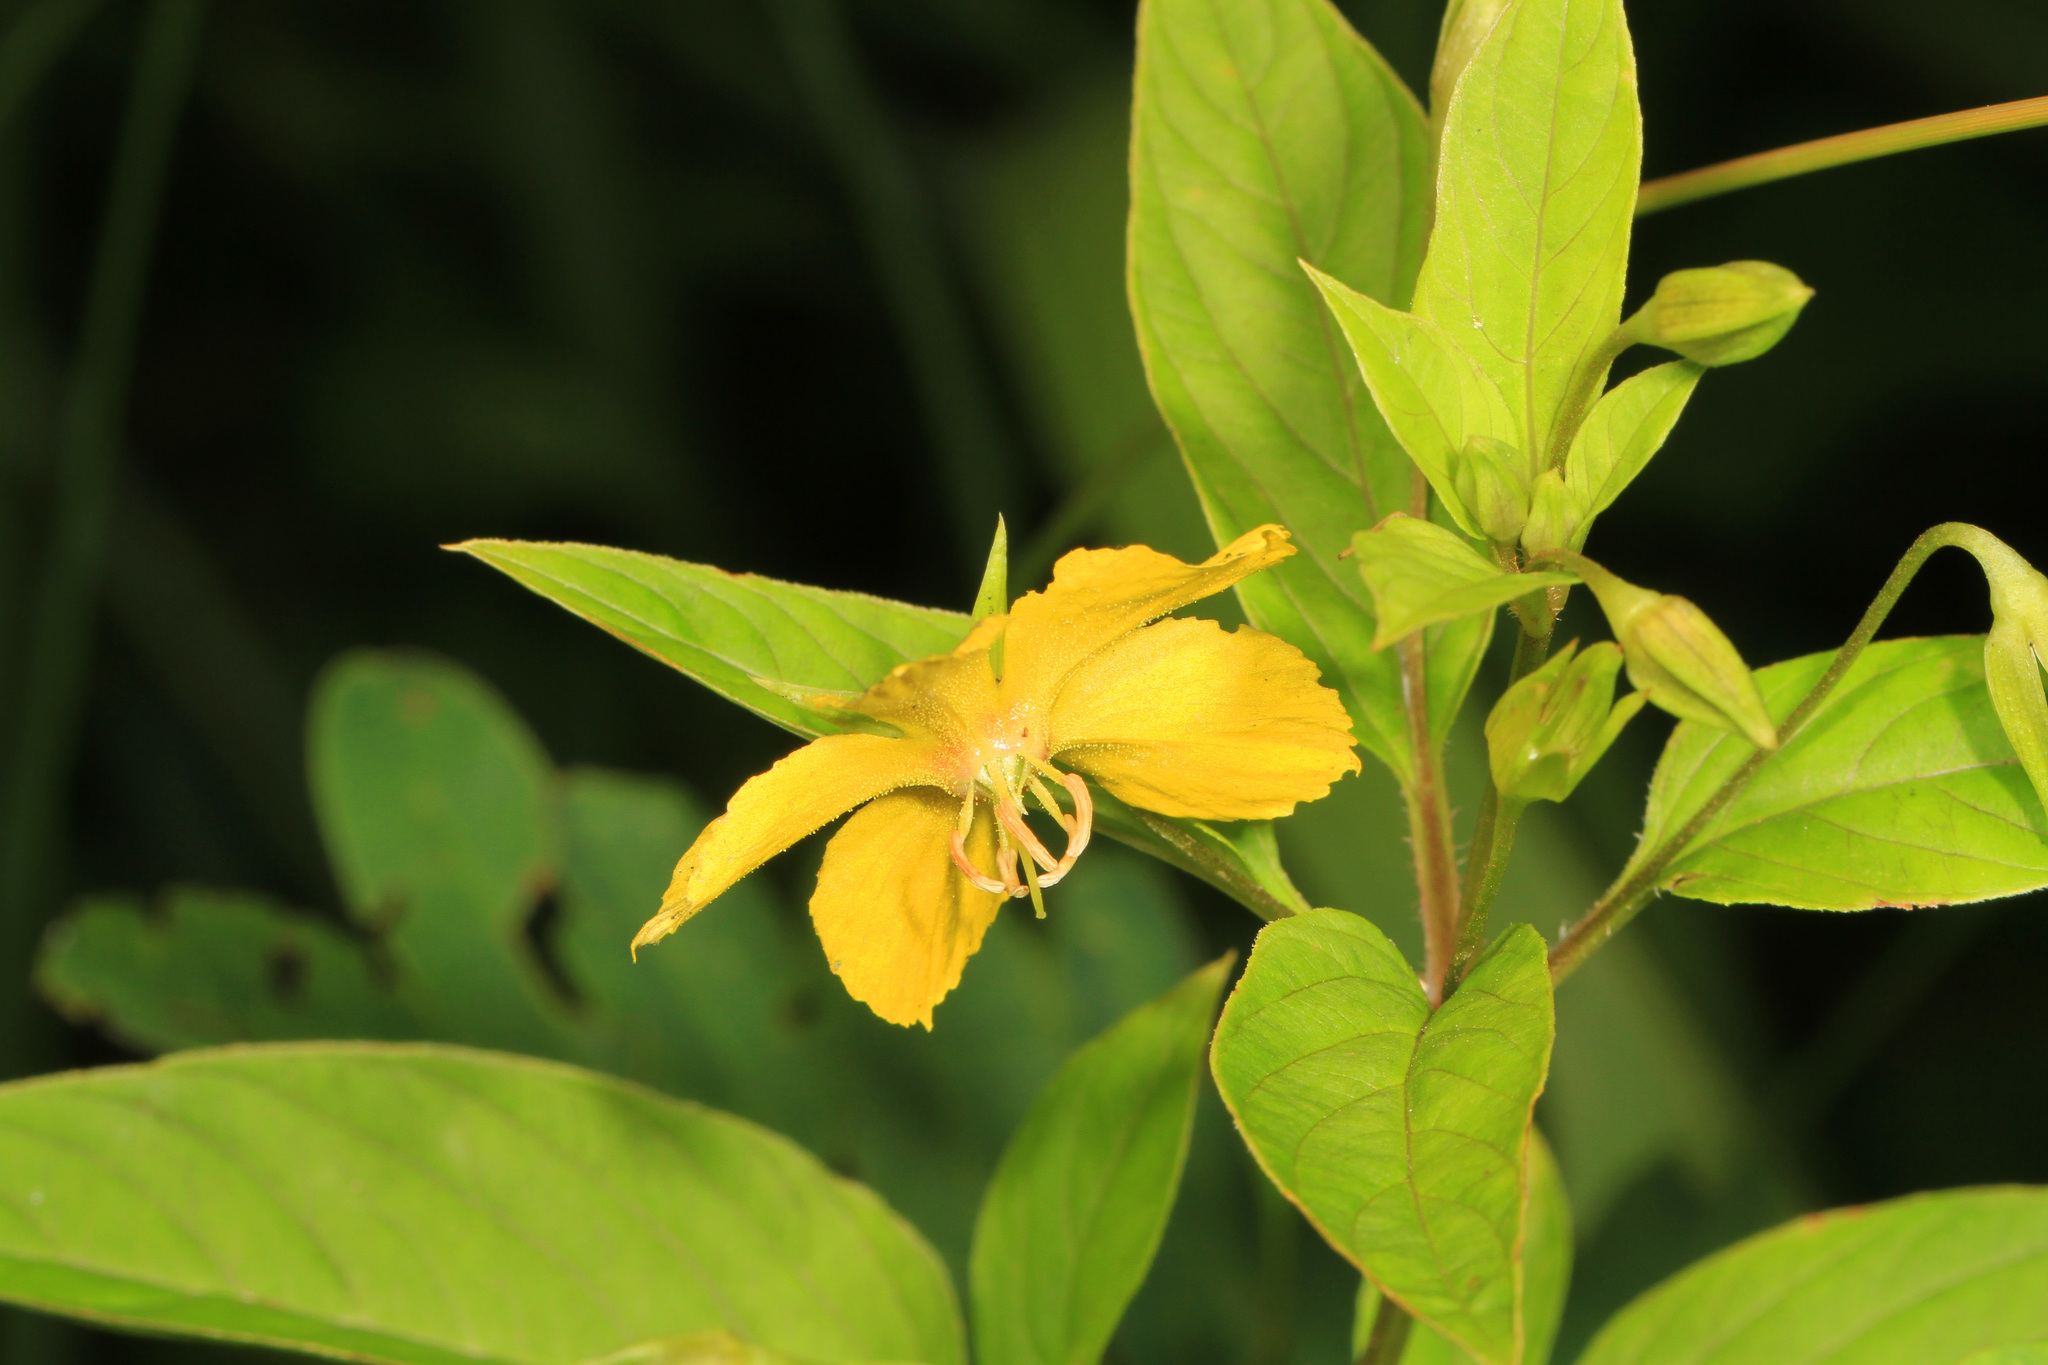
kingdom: Plantae
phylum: Tracheophyta
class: Magnoliopsida
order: Ericales
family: Primulaceae
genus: Lysimachia
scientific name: Lysimachia ciliata
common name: Fringed loosestrife
